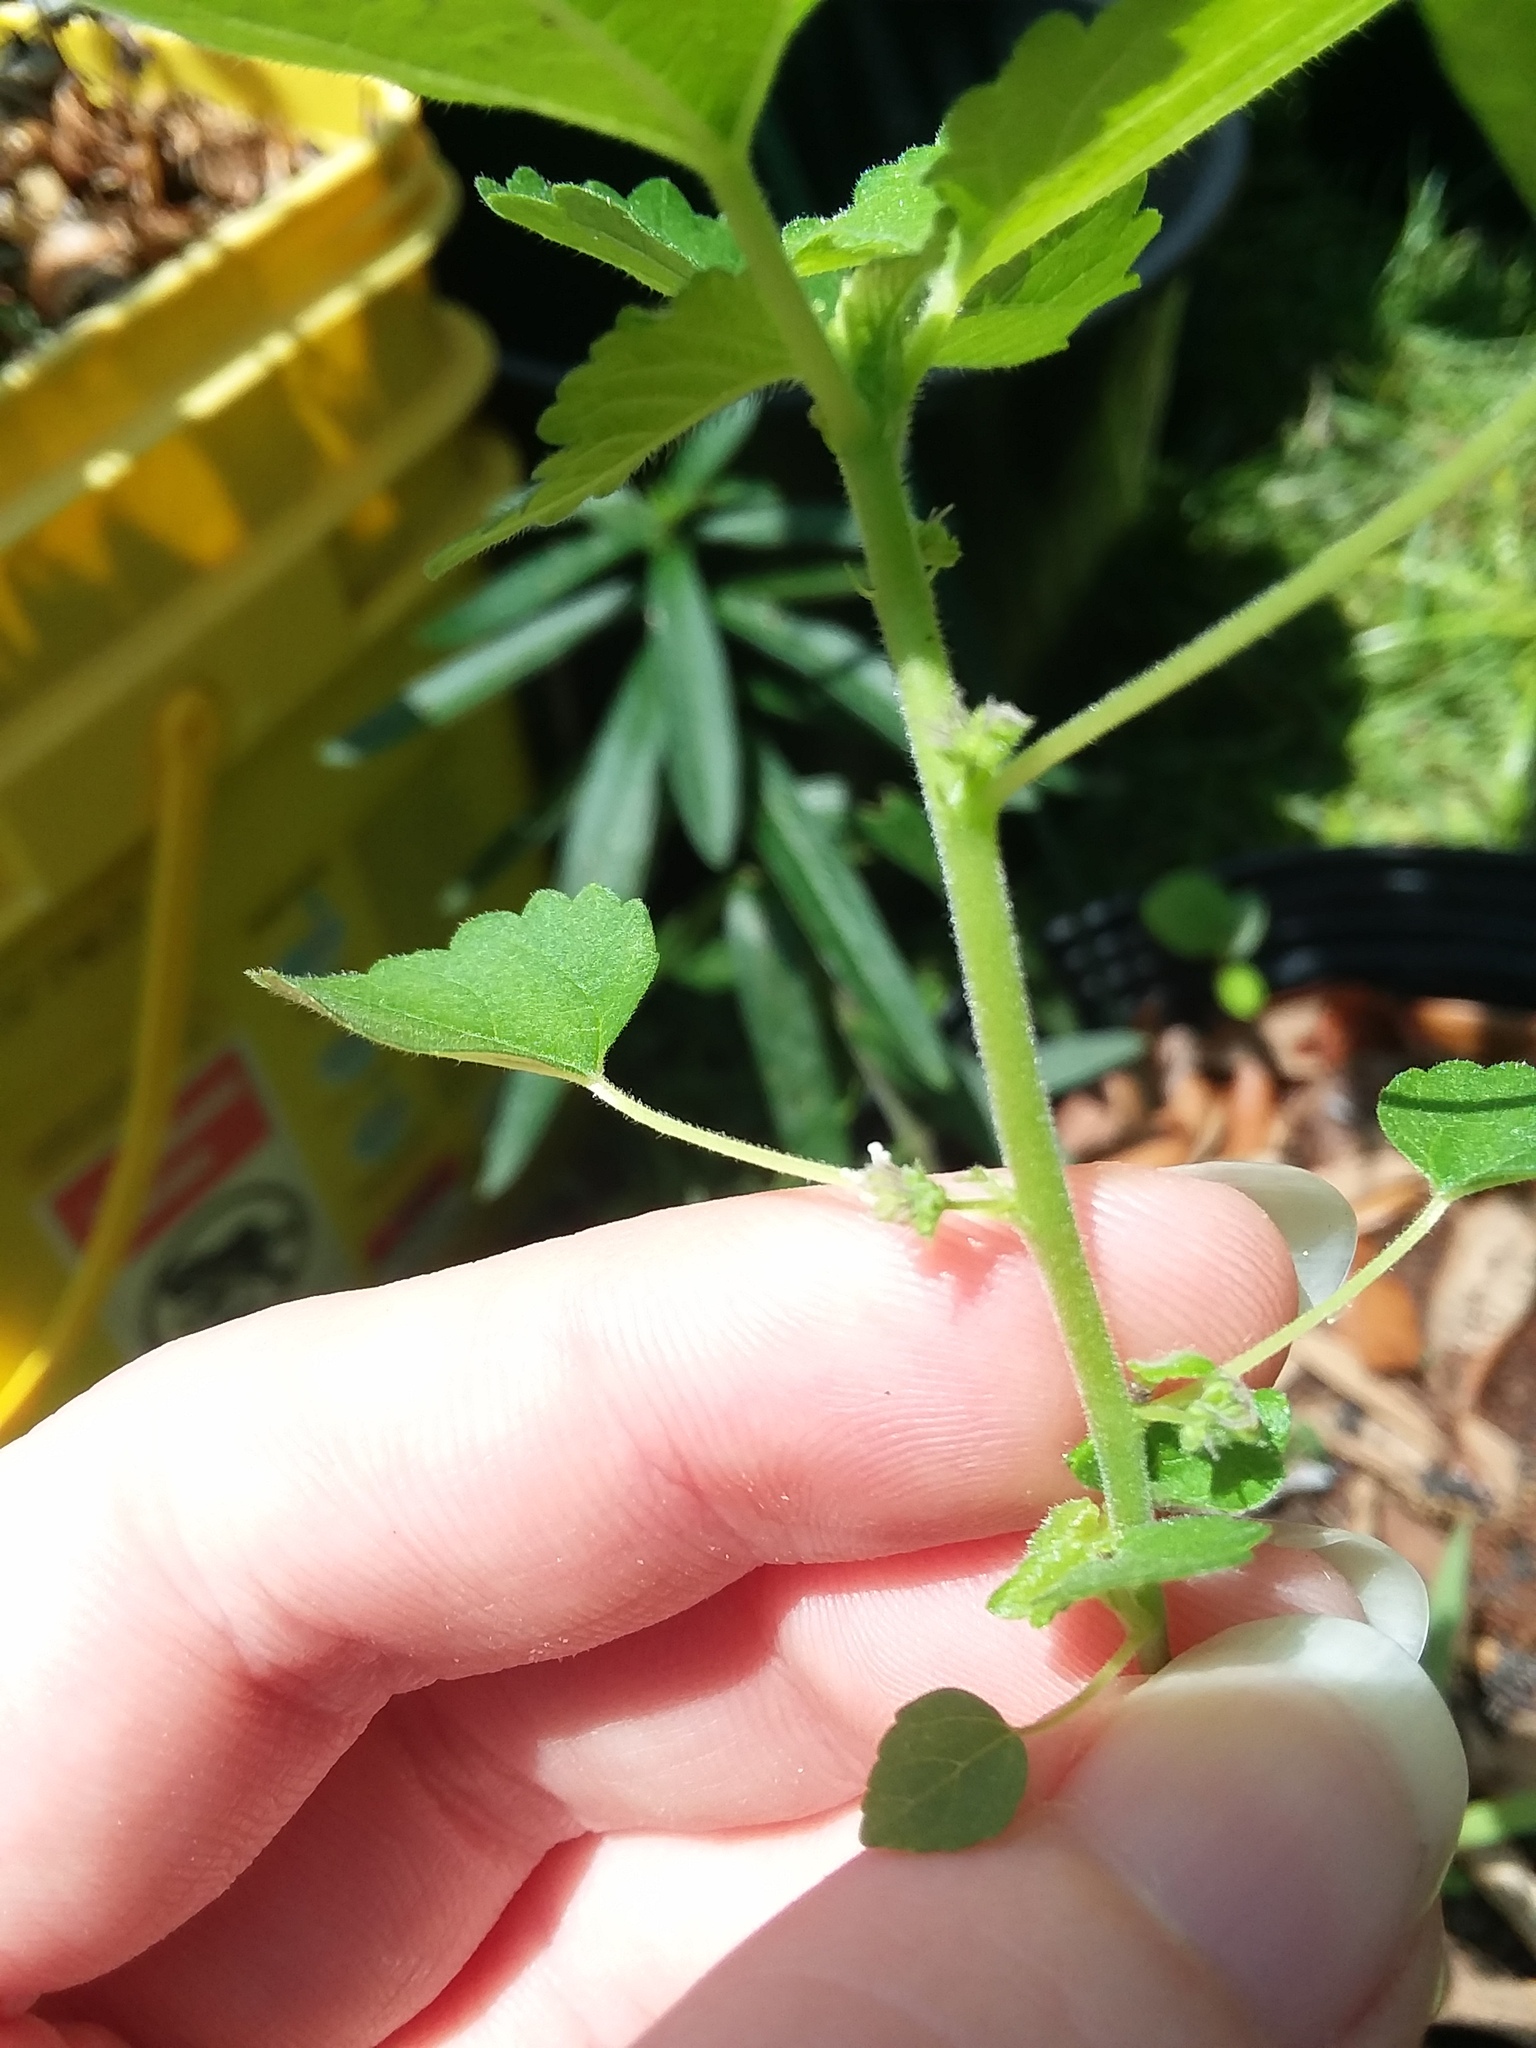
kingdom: Plantae
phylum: Tracheophyta
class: Magnoliopsida
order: Rosales
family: Moraceae
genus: Fatoua
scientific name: Fatoua villosa
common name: Hairy crabweed
